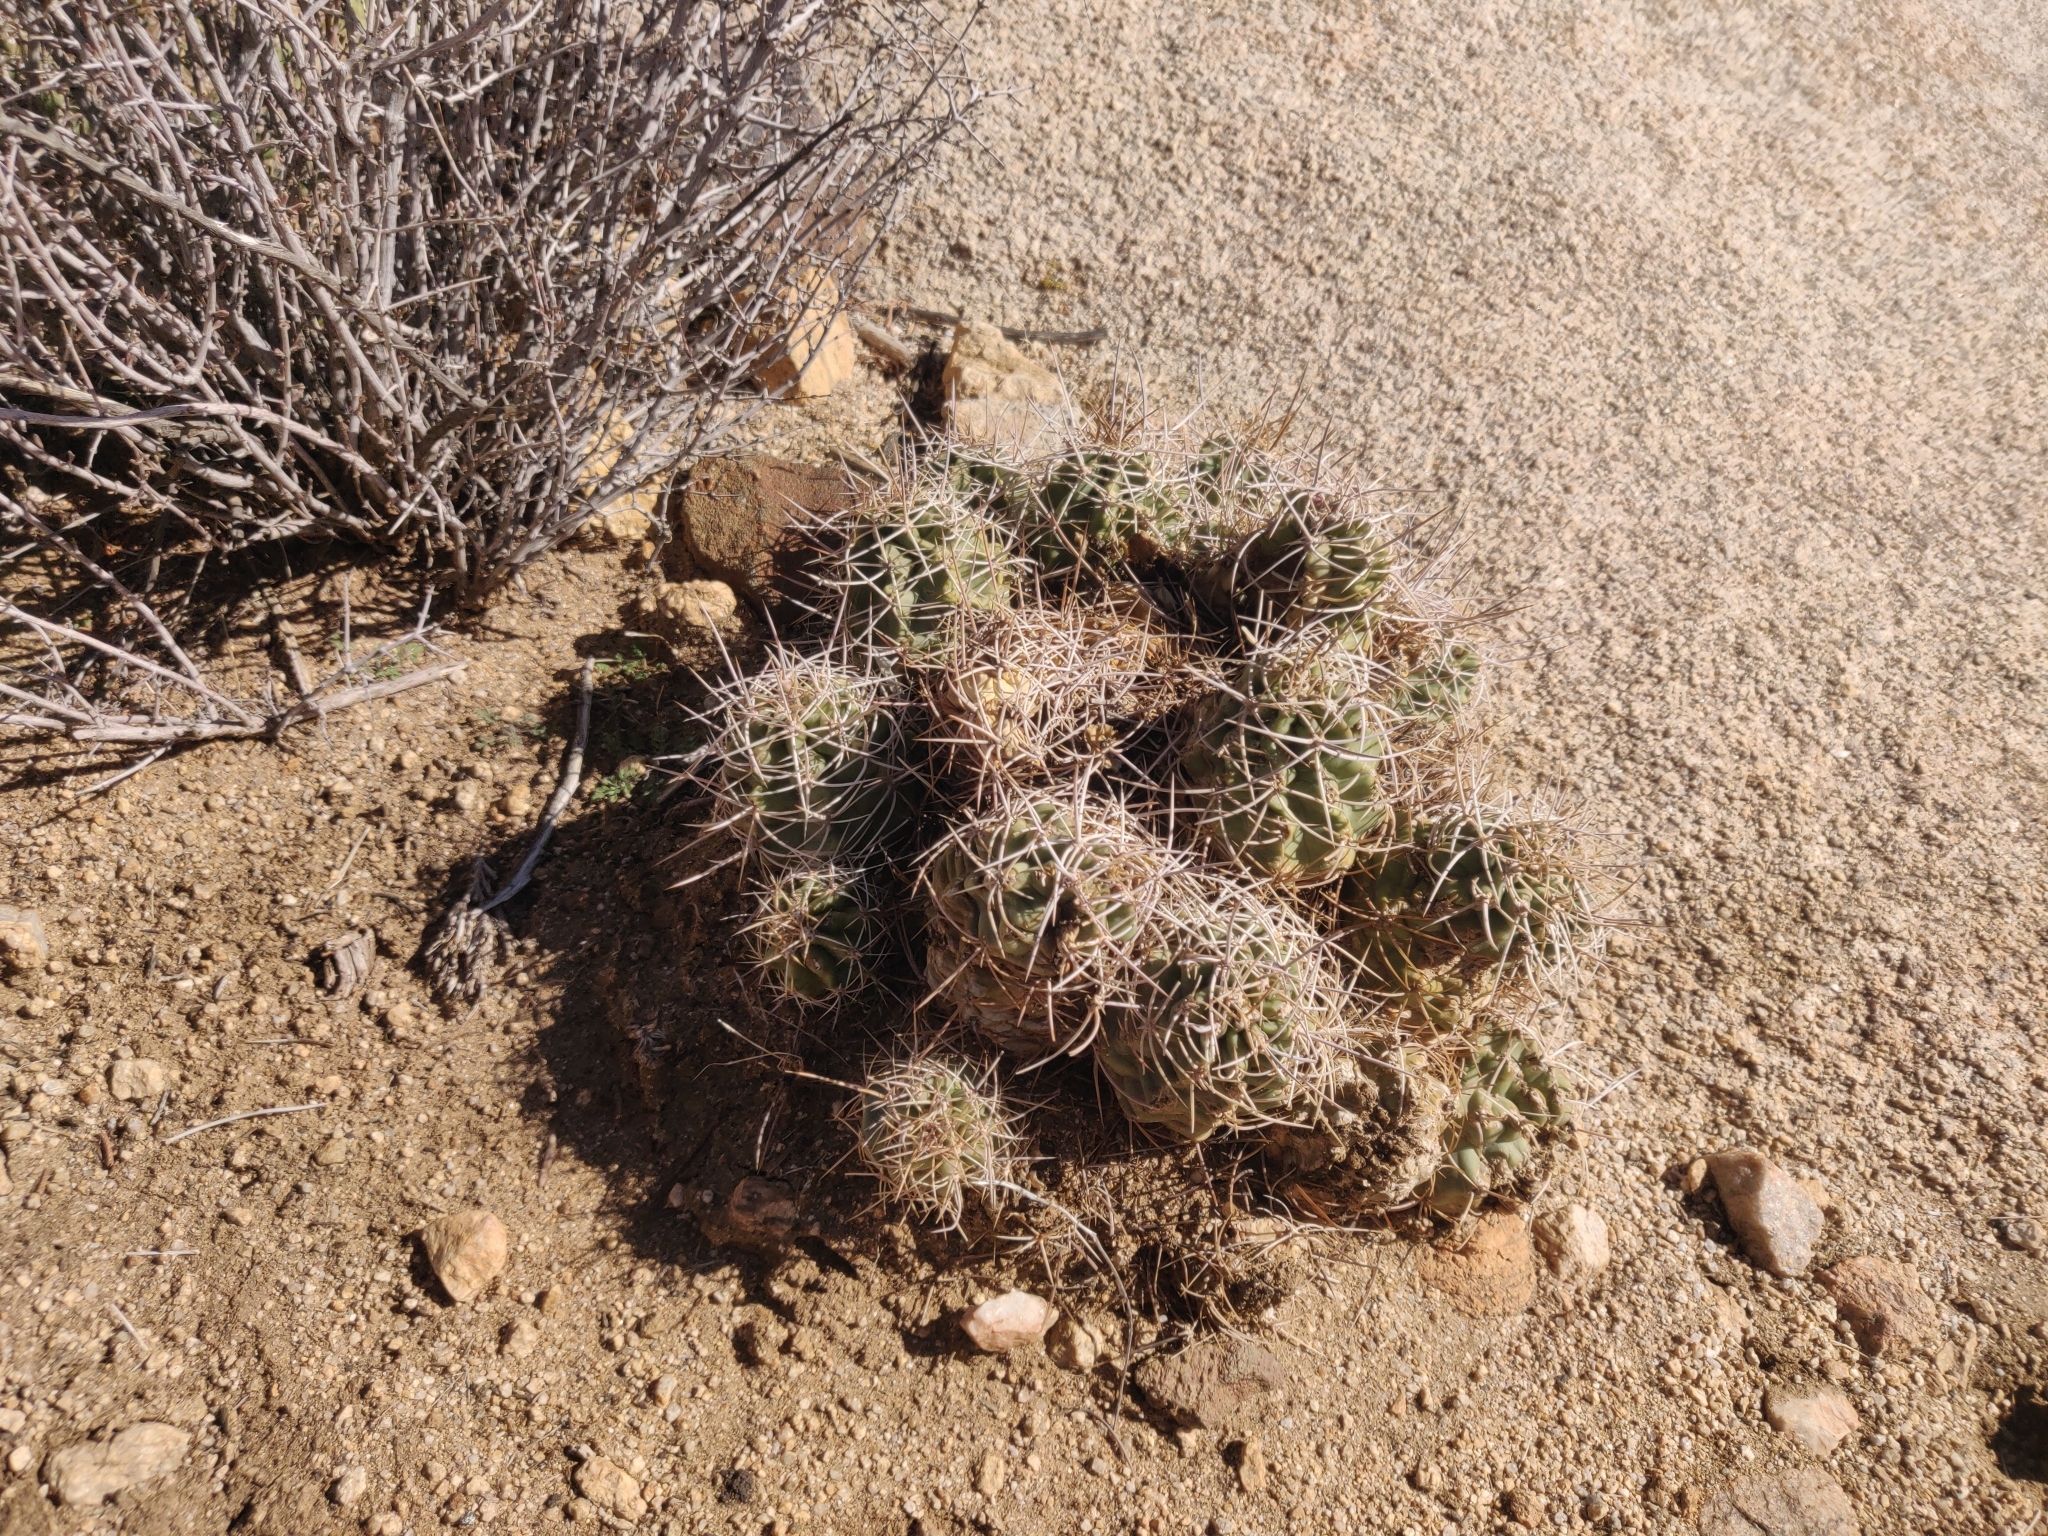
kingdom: Plantae
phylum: Tracheophyta
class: Magnoliopsida
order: Caryophyllales
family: Cactaceae
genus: Echinocereus
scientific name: Echinocereus triglochidiatus
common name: Claretcup hedgehog
